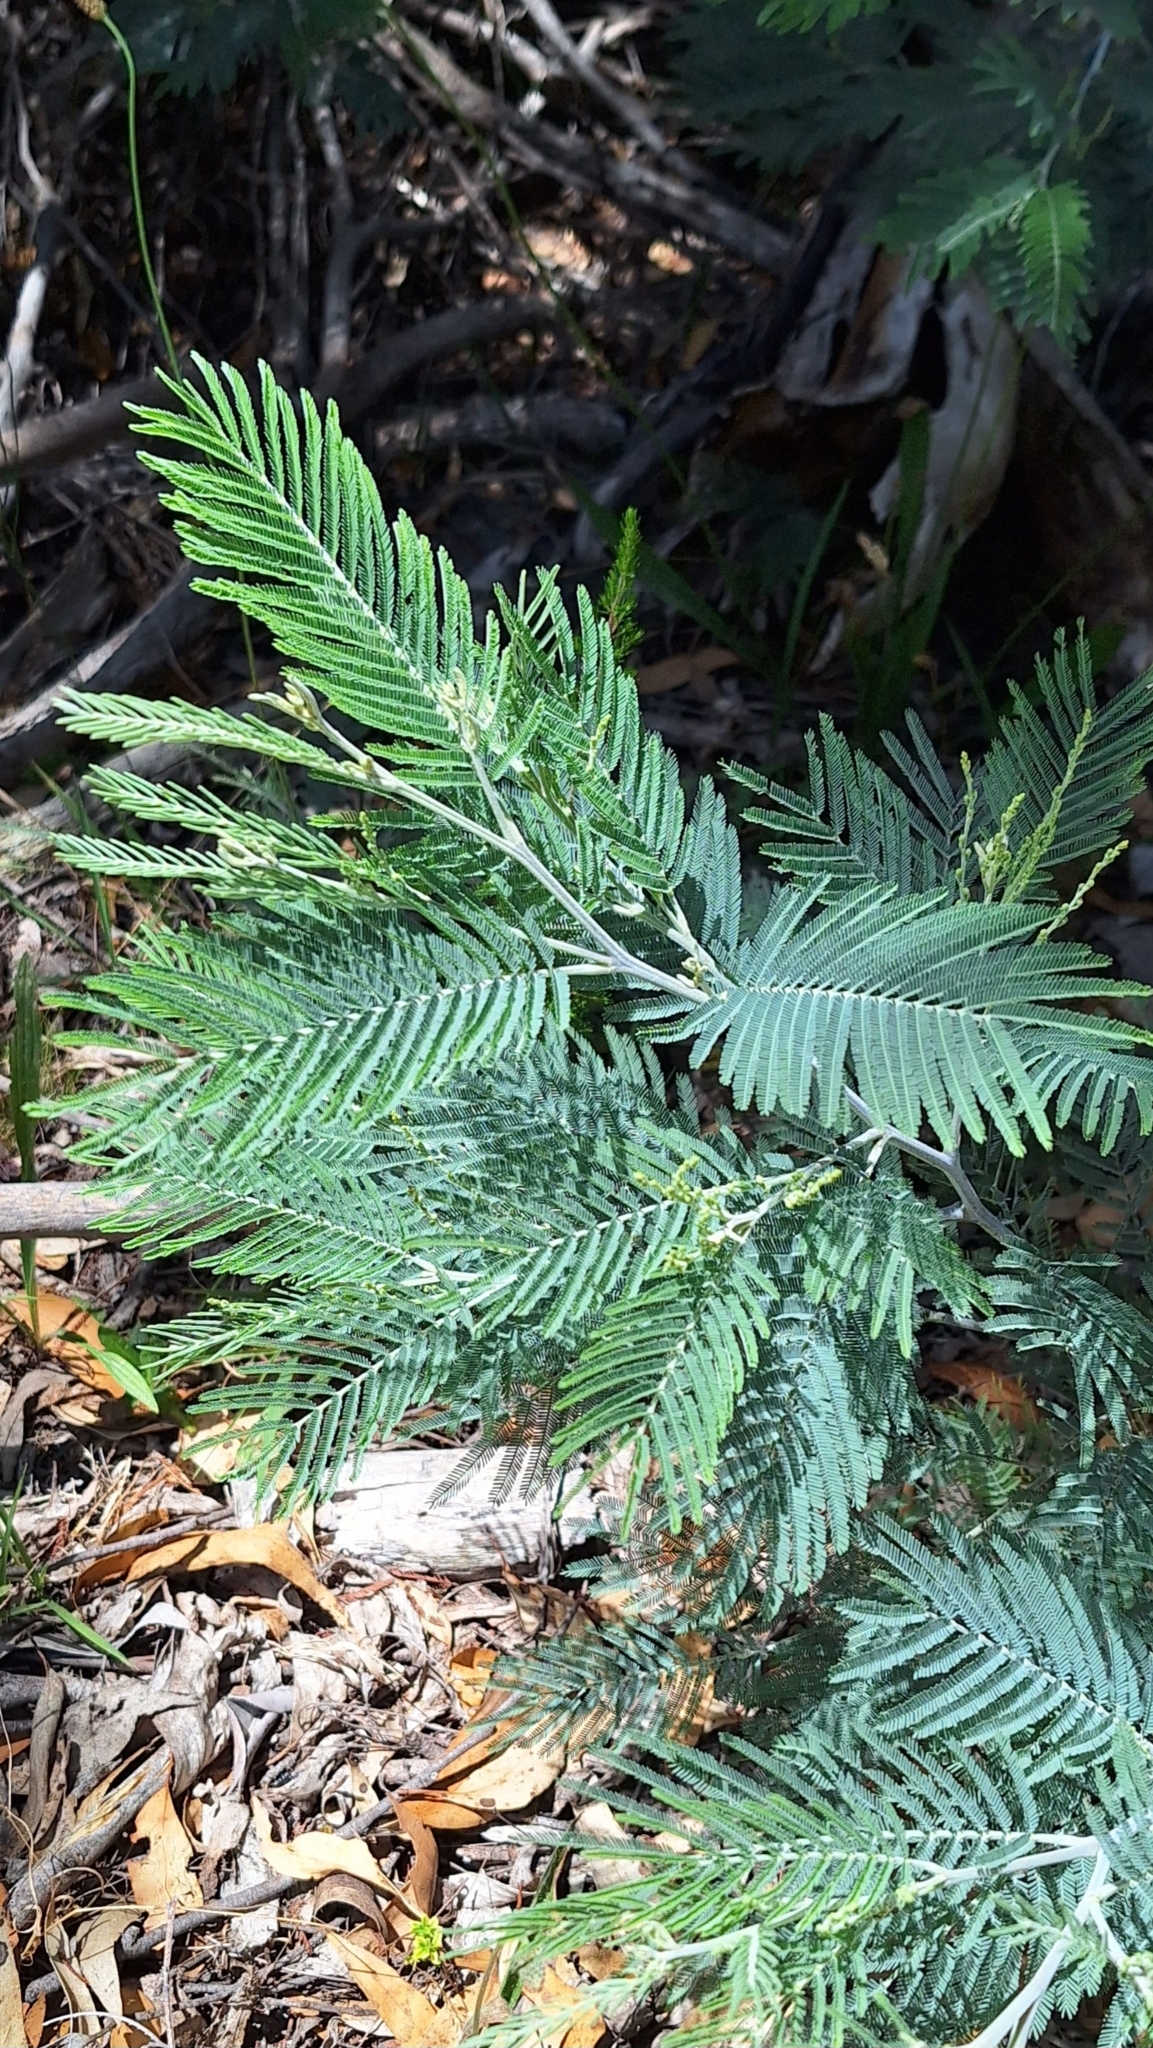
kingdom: Plantae
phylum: Tracheophyta
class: Magnoliopsida
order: Fabales
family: Fabaceae
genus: Acacia
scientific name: Acacia dealbata
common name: Silver wattle
